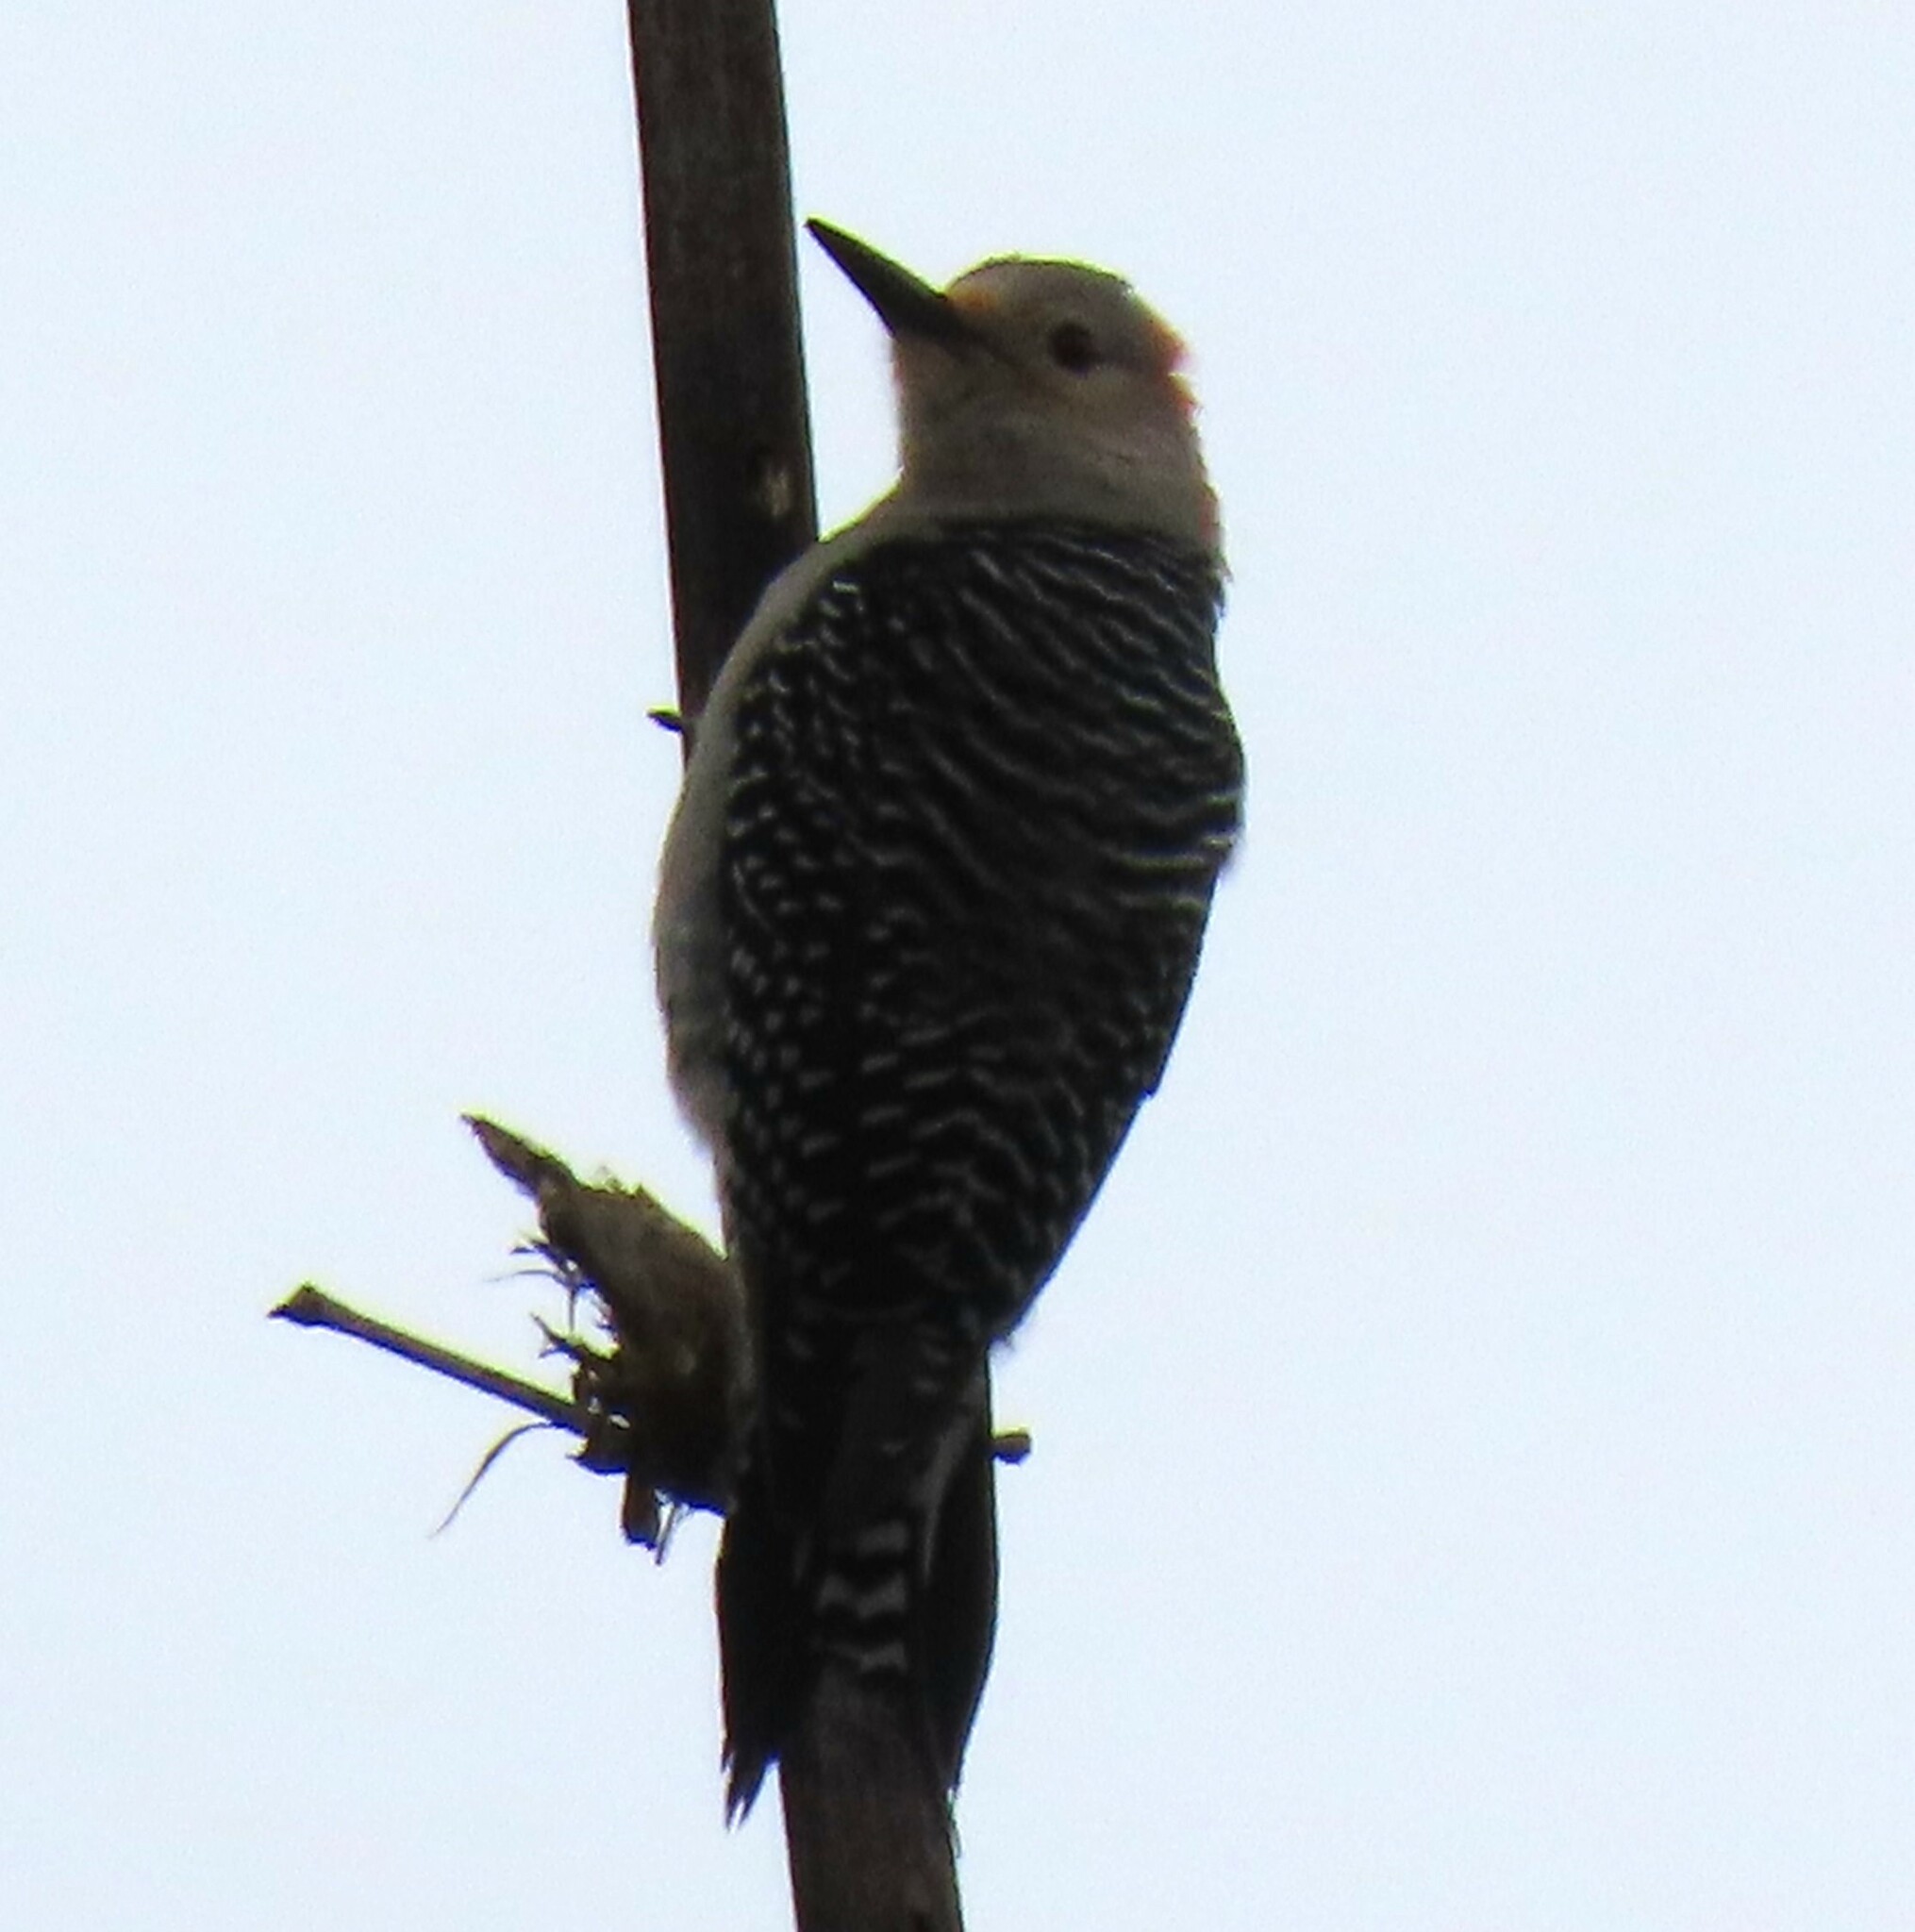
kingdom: Animalia
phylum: Chordata
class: Aves
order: Piciformes
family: Picidae
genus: Melanerpes
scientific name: Melanerpes carolinus
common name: Red-bellied woodpecker
